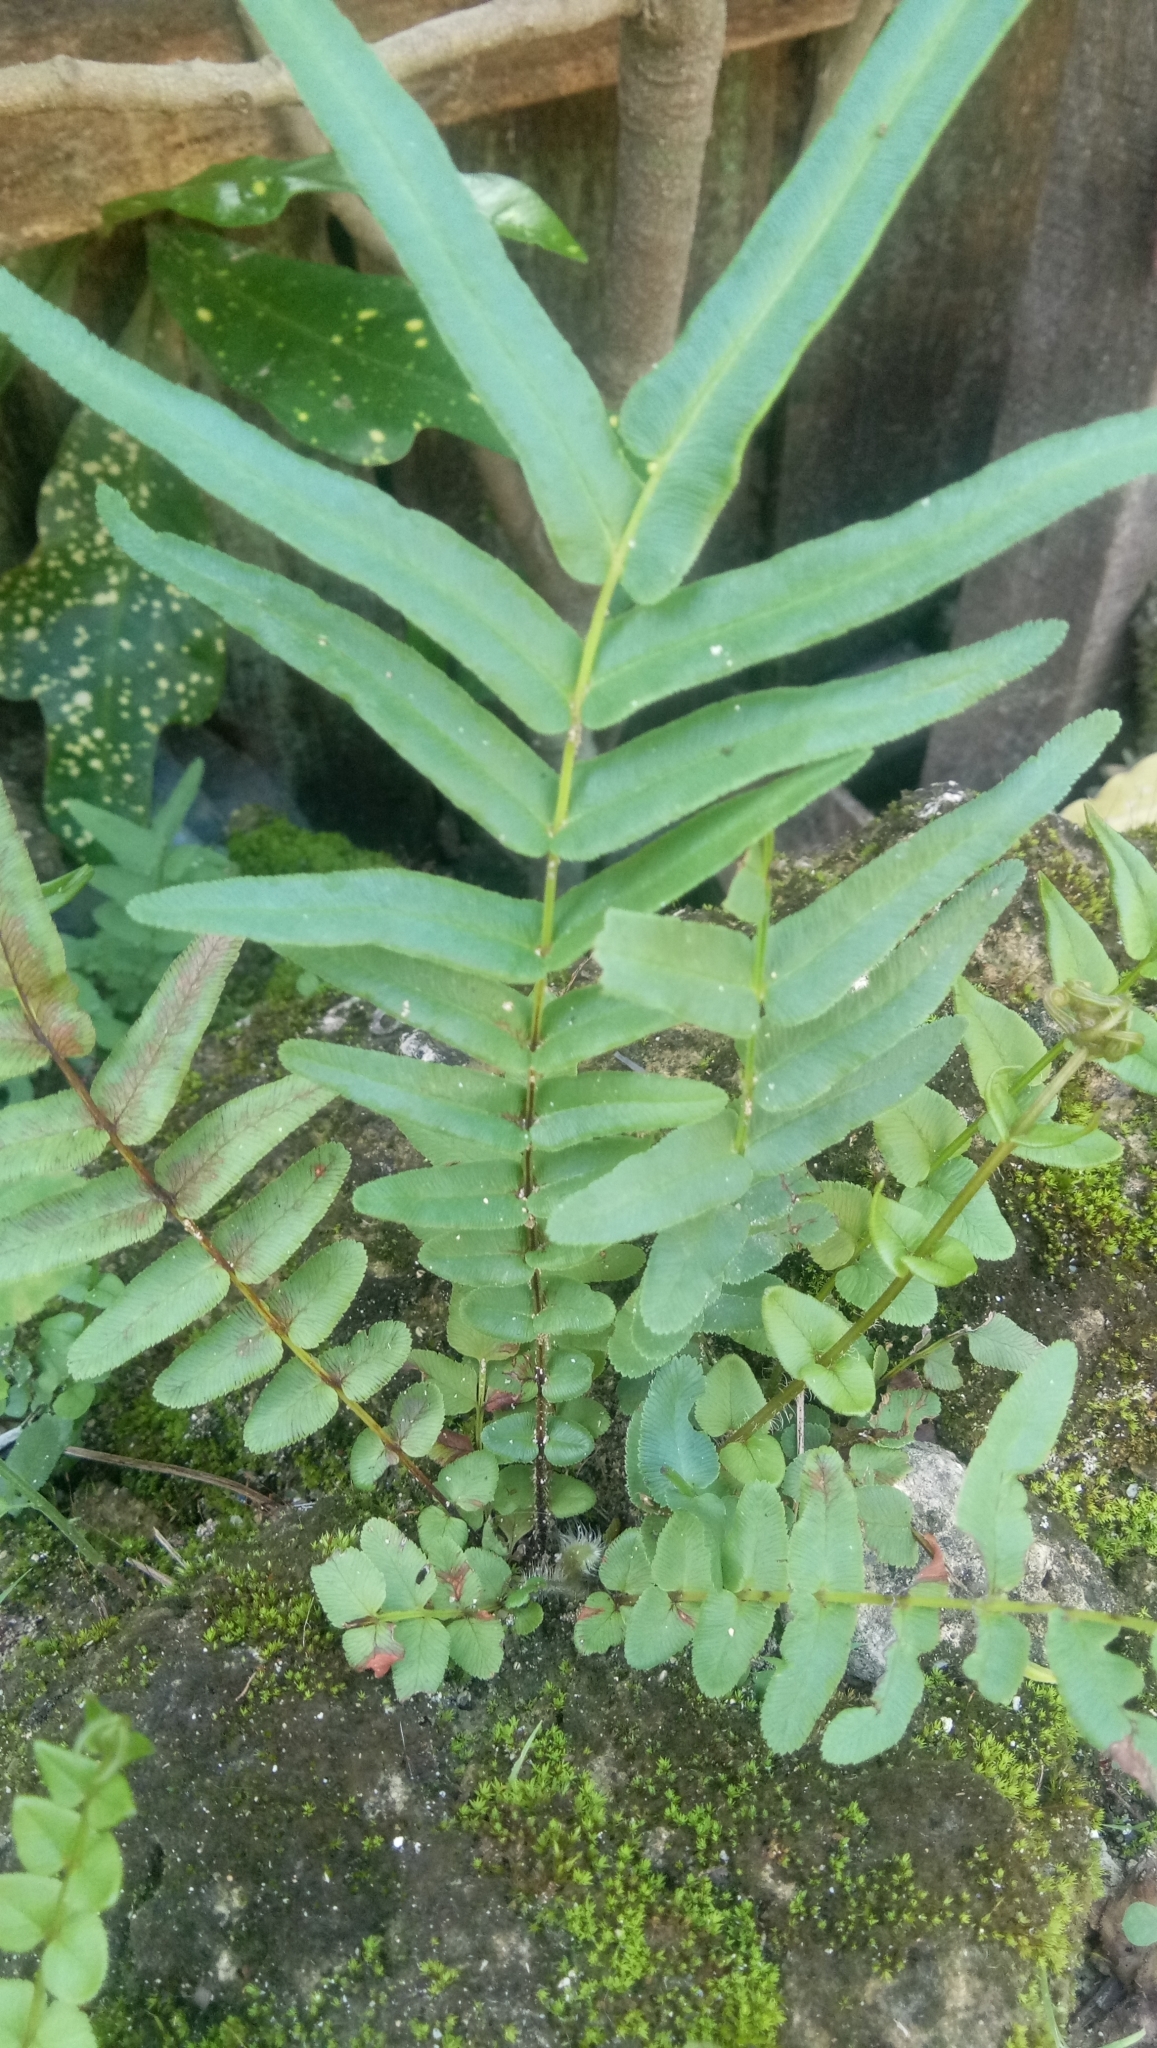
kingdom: Plantae
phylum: Tracheophyta
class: Polypodiopsida
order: Polypodiales
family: Pteridaceae
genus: Pteris
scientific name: Pteris vittata
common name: Ladder brake
